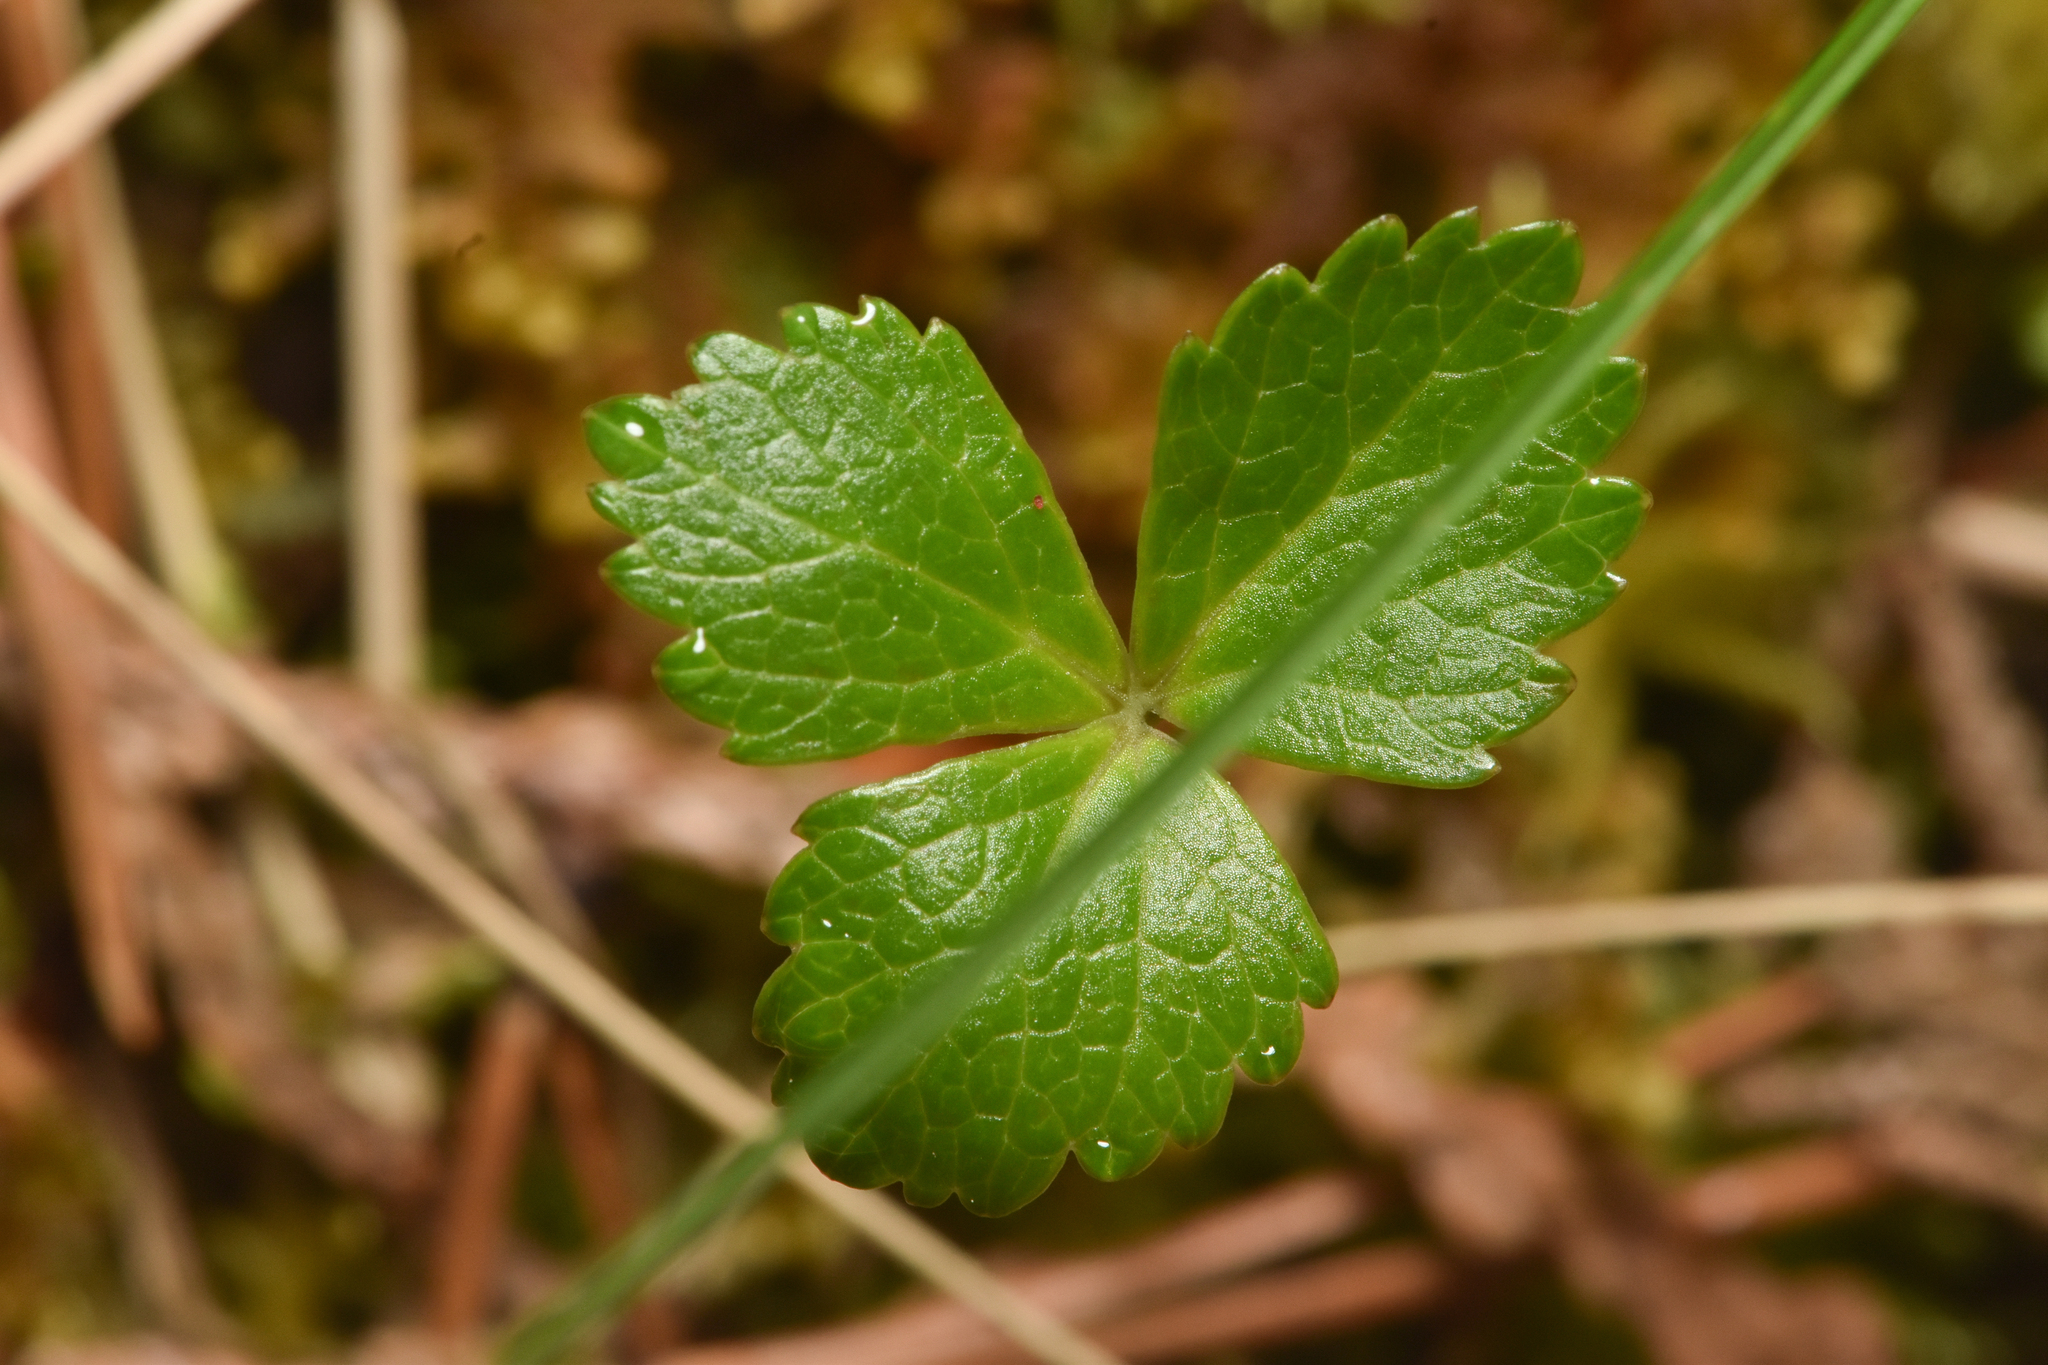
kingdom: Plantae
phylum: Tracheophyta
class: Magnoliopsida
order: Ranunculales
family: Ranunculaceae
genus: Coptis
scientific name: Coptis trifolia
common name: Canker-root
